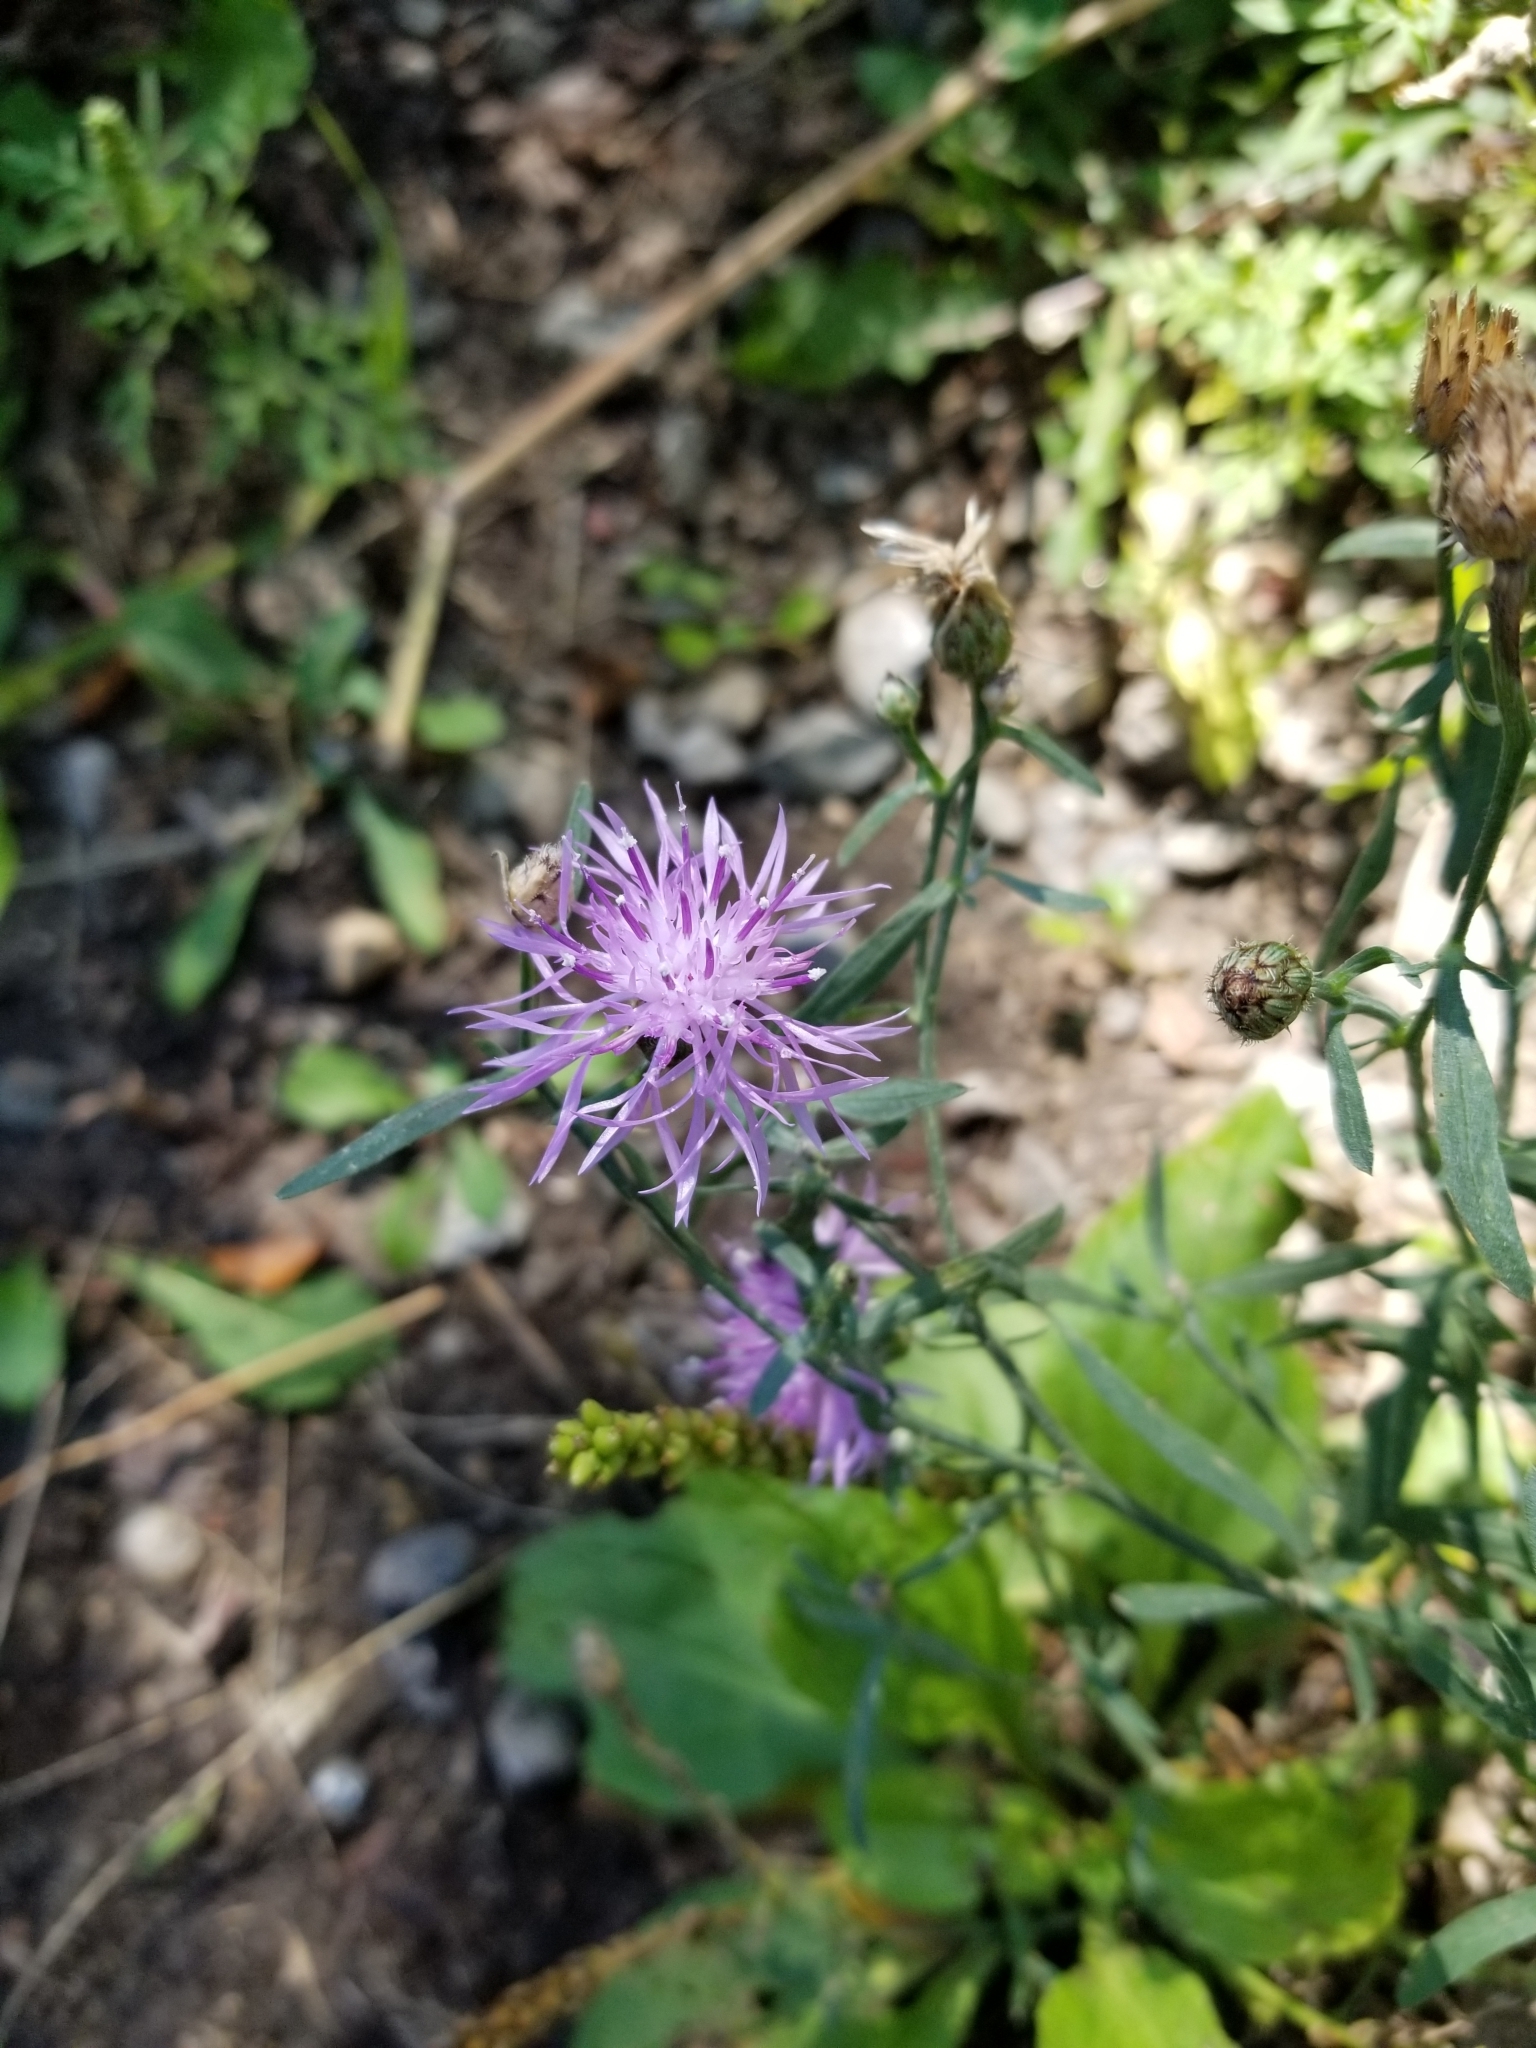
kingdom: Plantae
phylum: Tracheophyta
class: Magnoliopsida
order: Asterales
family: Asteraceae
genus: Centaurea
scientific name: Centaurea stoebe
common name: Spotted knapweed
